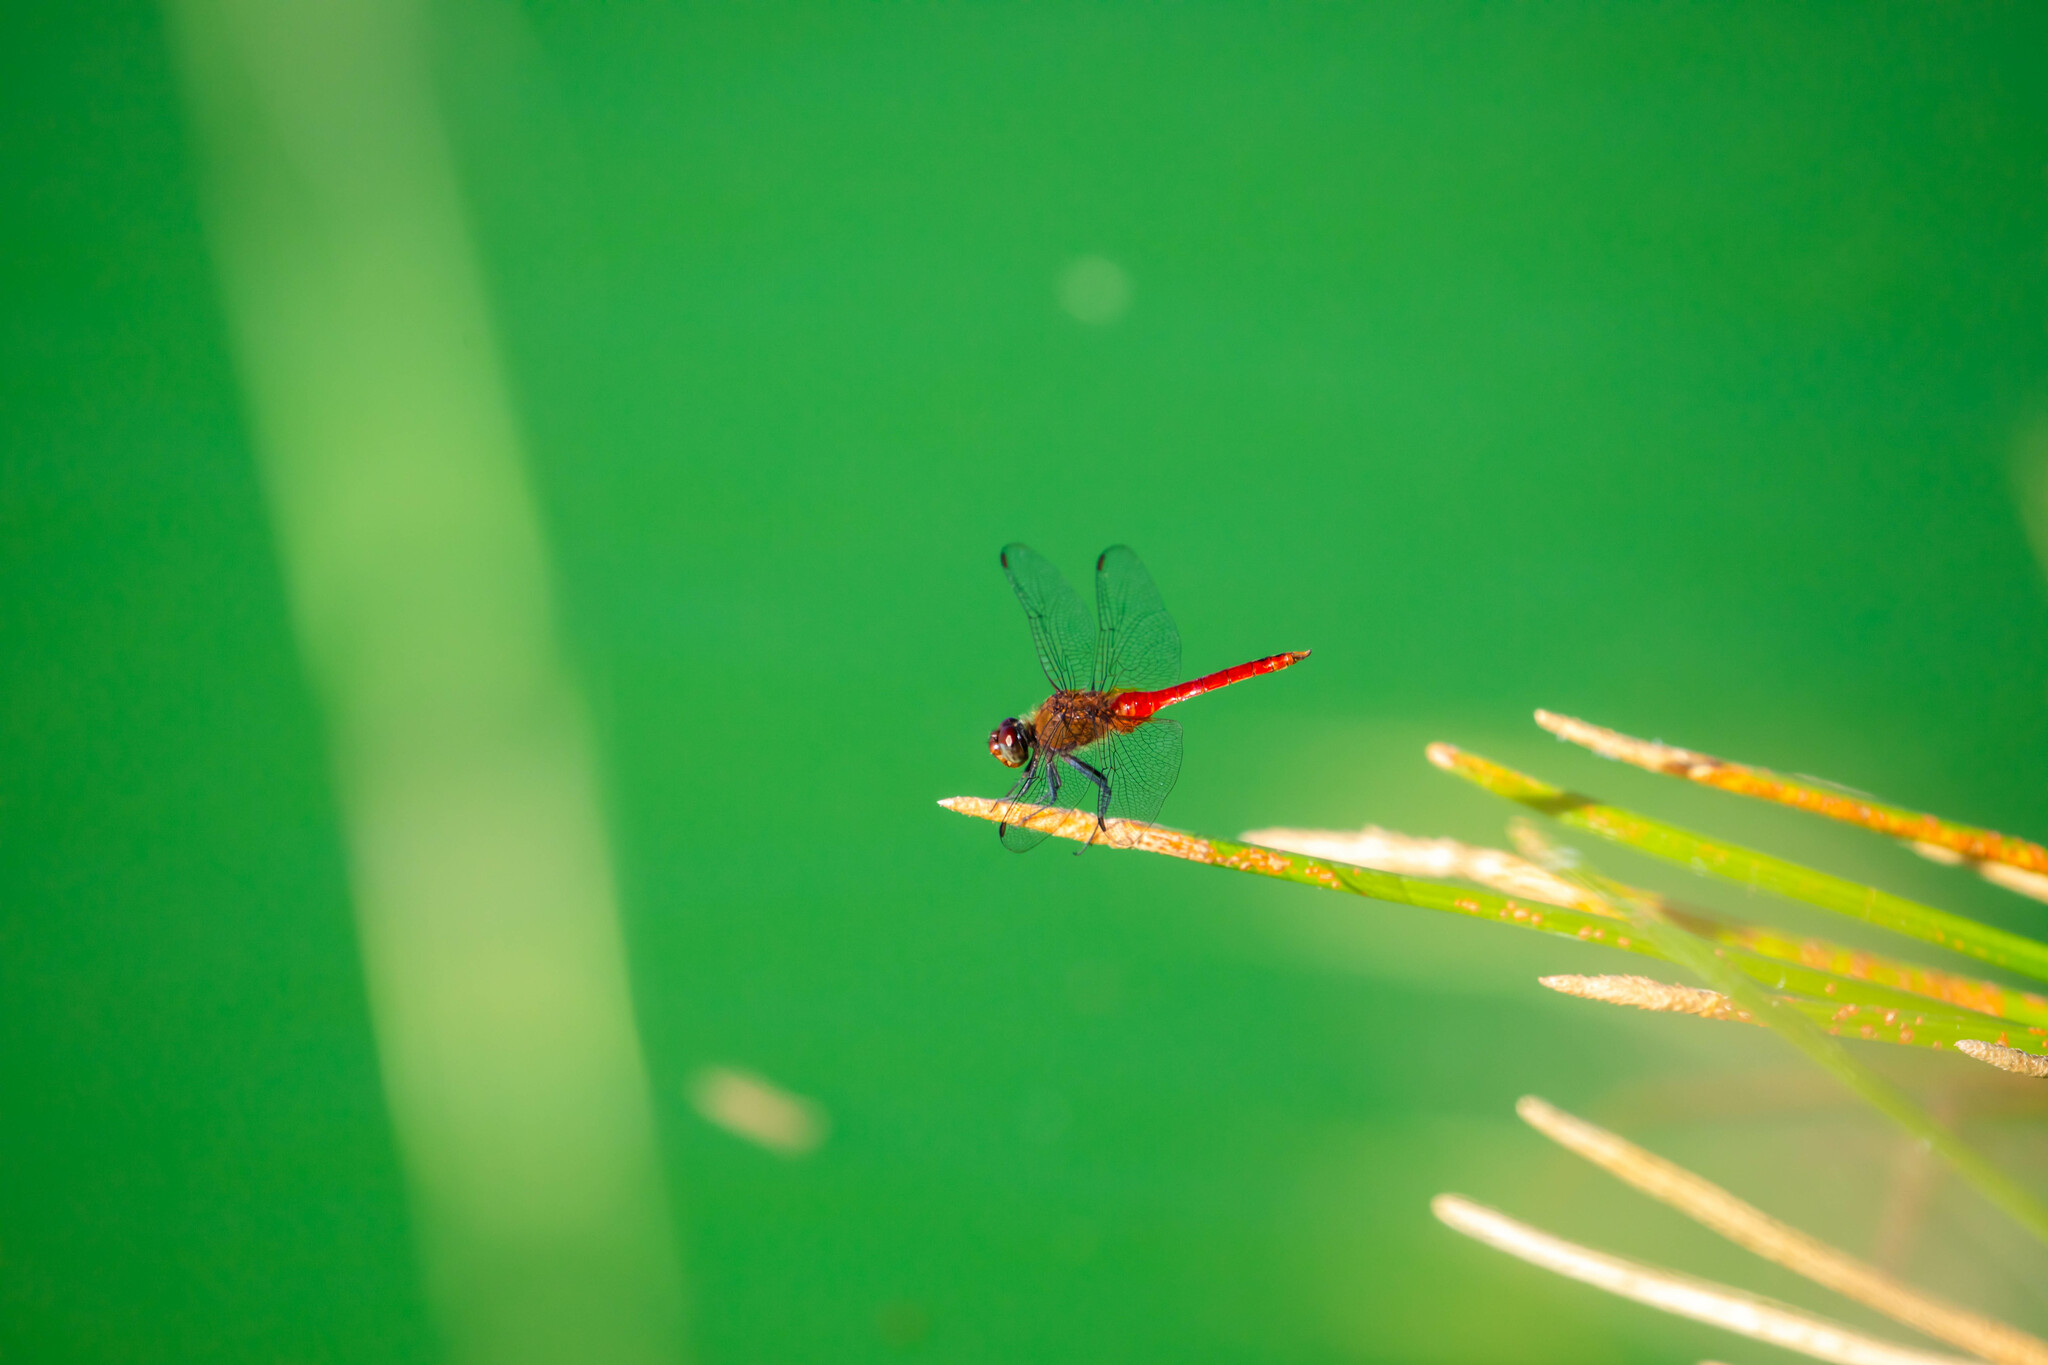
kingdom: Animalia
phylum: Arthropoda
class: Insecta
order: Odonata
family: Libellulidae
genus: Brachymesia
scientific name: Brachymesia furcata
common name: Red-taled pennant
